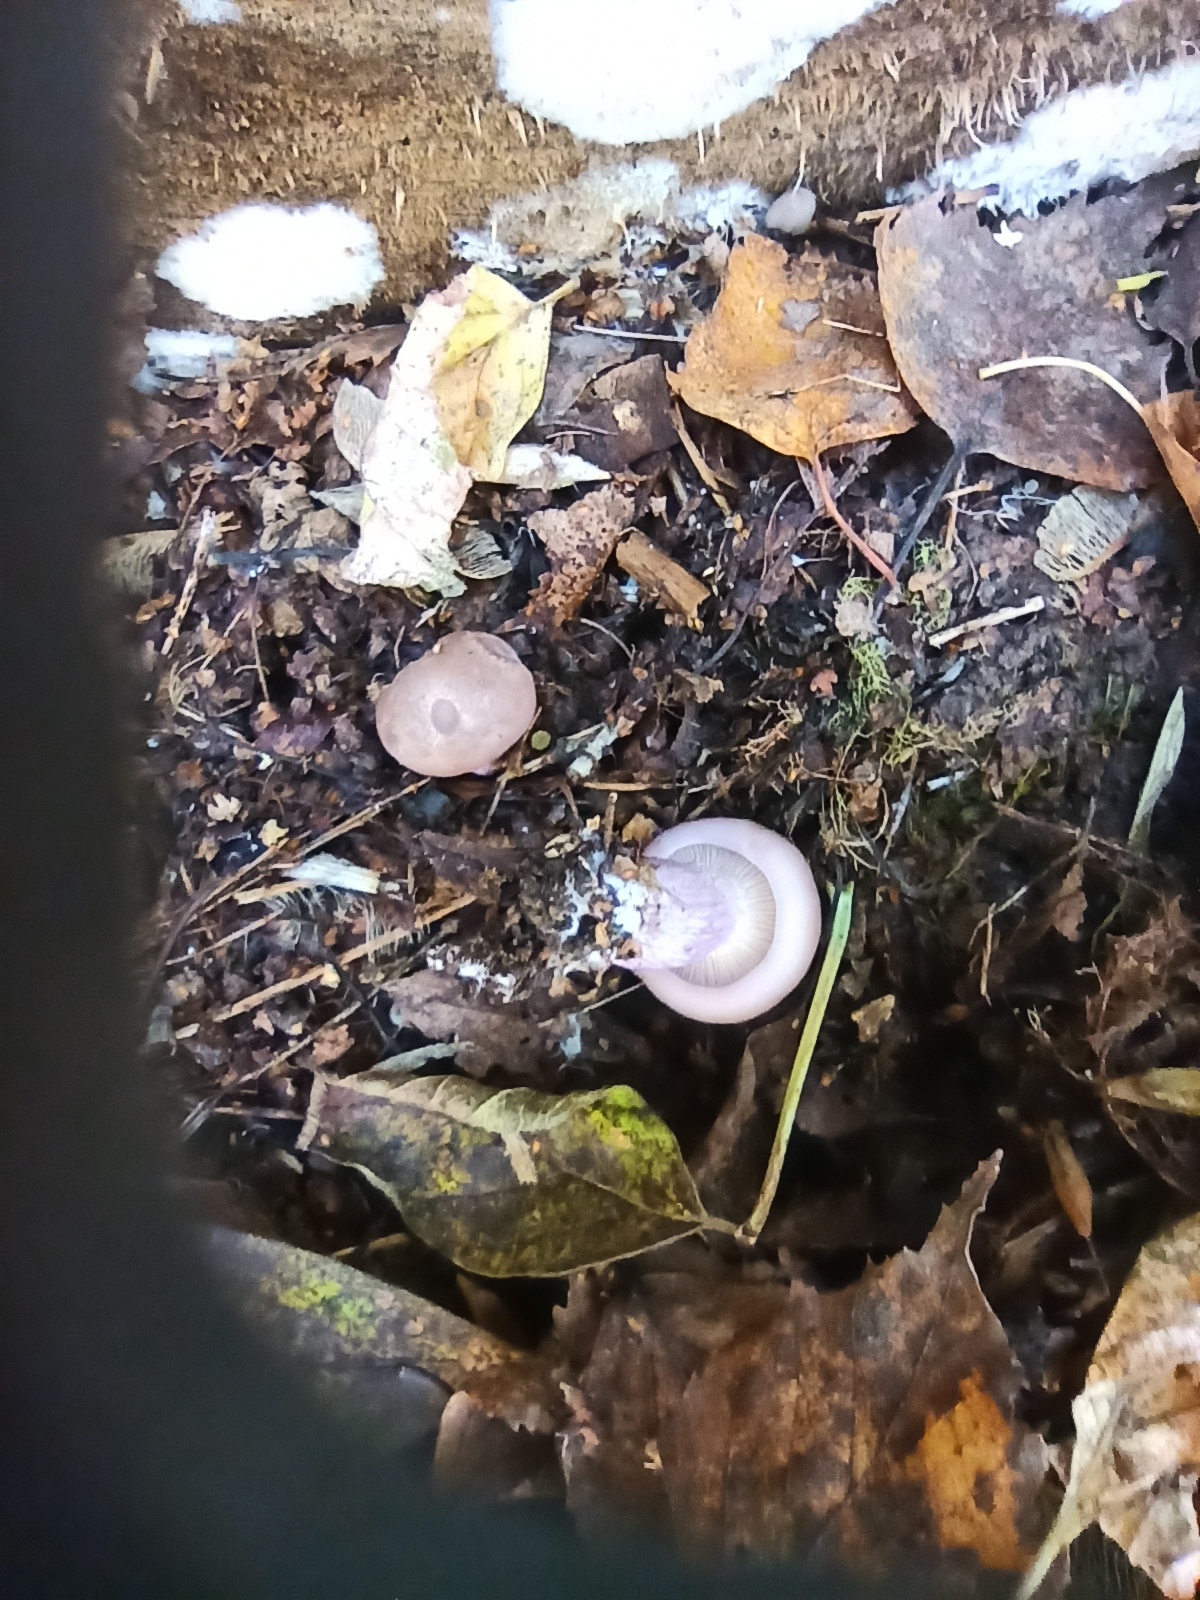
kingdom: Fungi
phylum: Basidiomycota
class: Agaricomycetes
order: Agaricales
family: Omphalotaceae
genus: Collybiopsis
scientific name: Collybiopsis peronata
